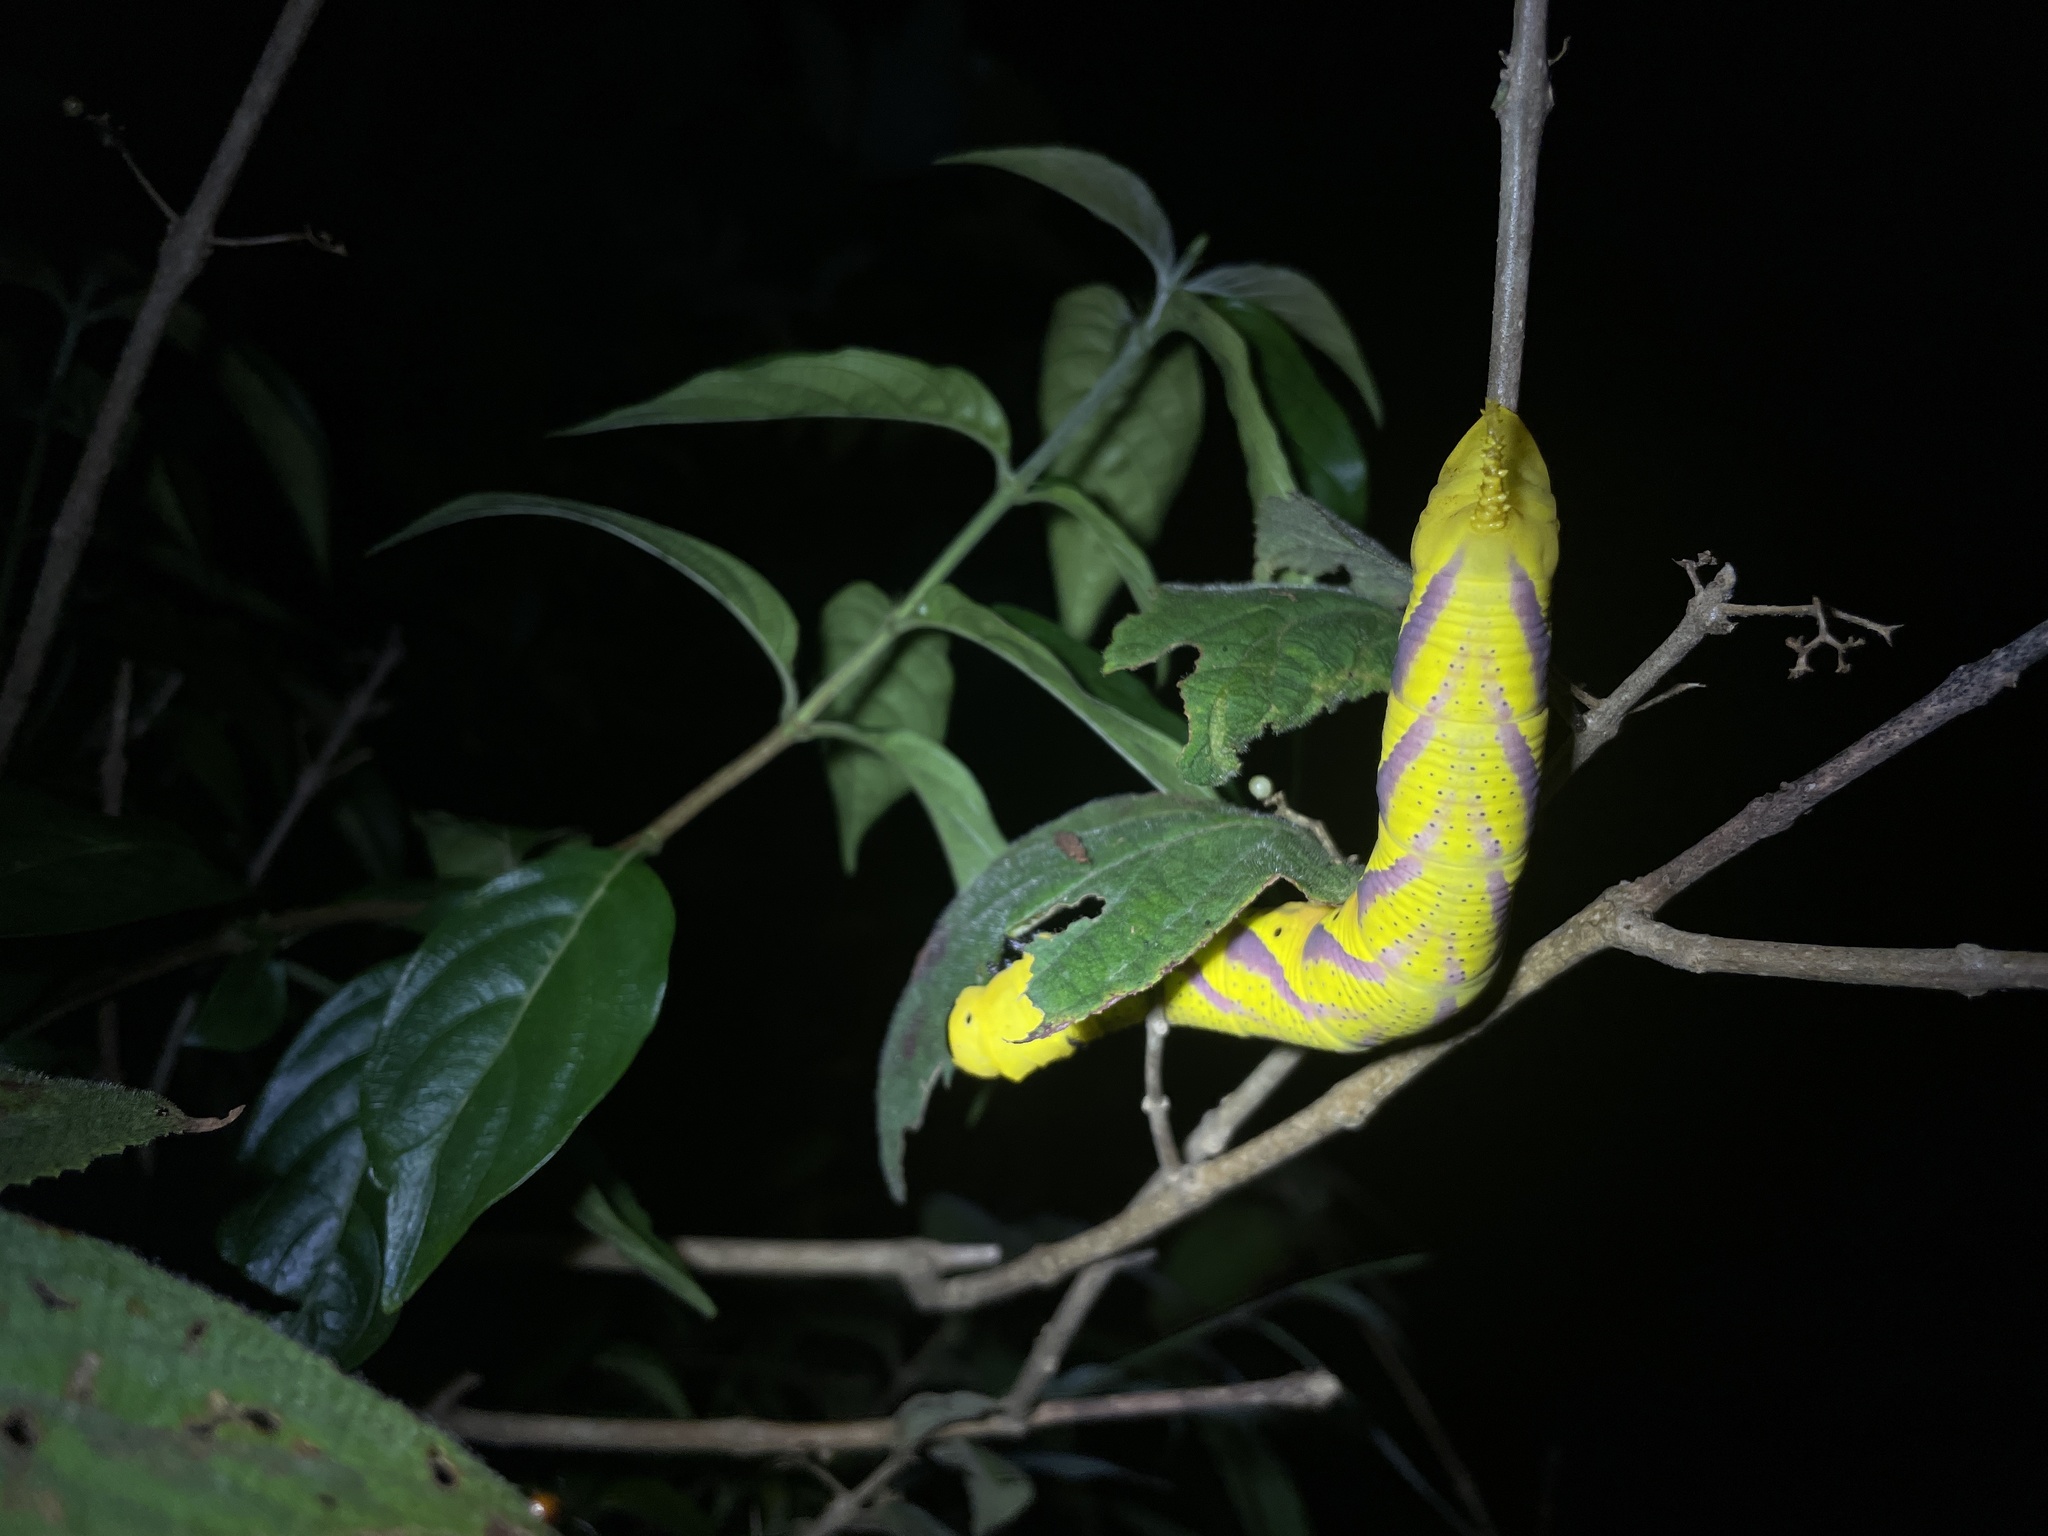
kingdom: Animalia
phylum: Arthropoda
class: Insecta
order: Lepidoptera
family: Sphingidae
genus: Acherontia
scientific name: Acherontia lachesis
